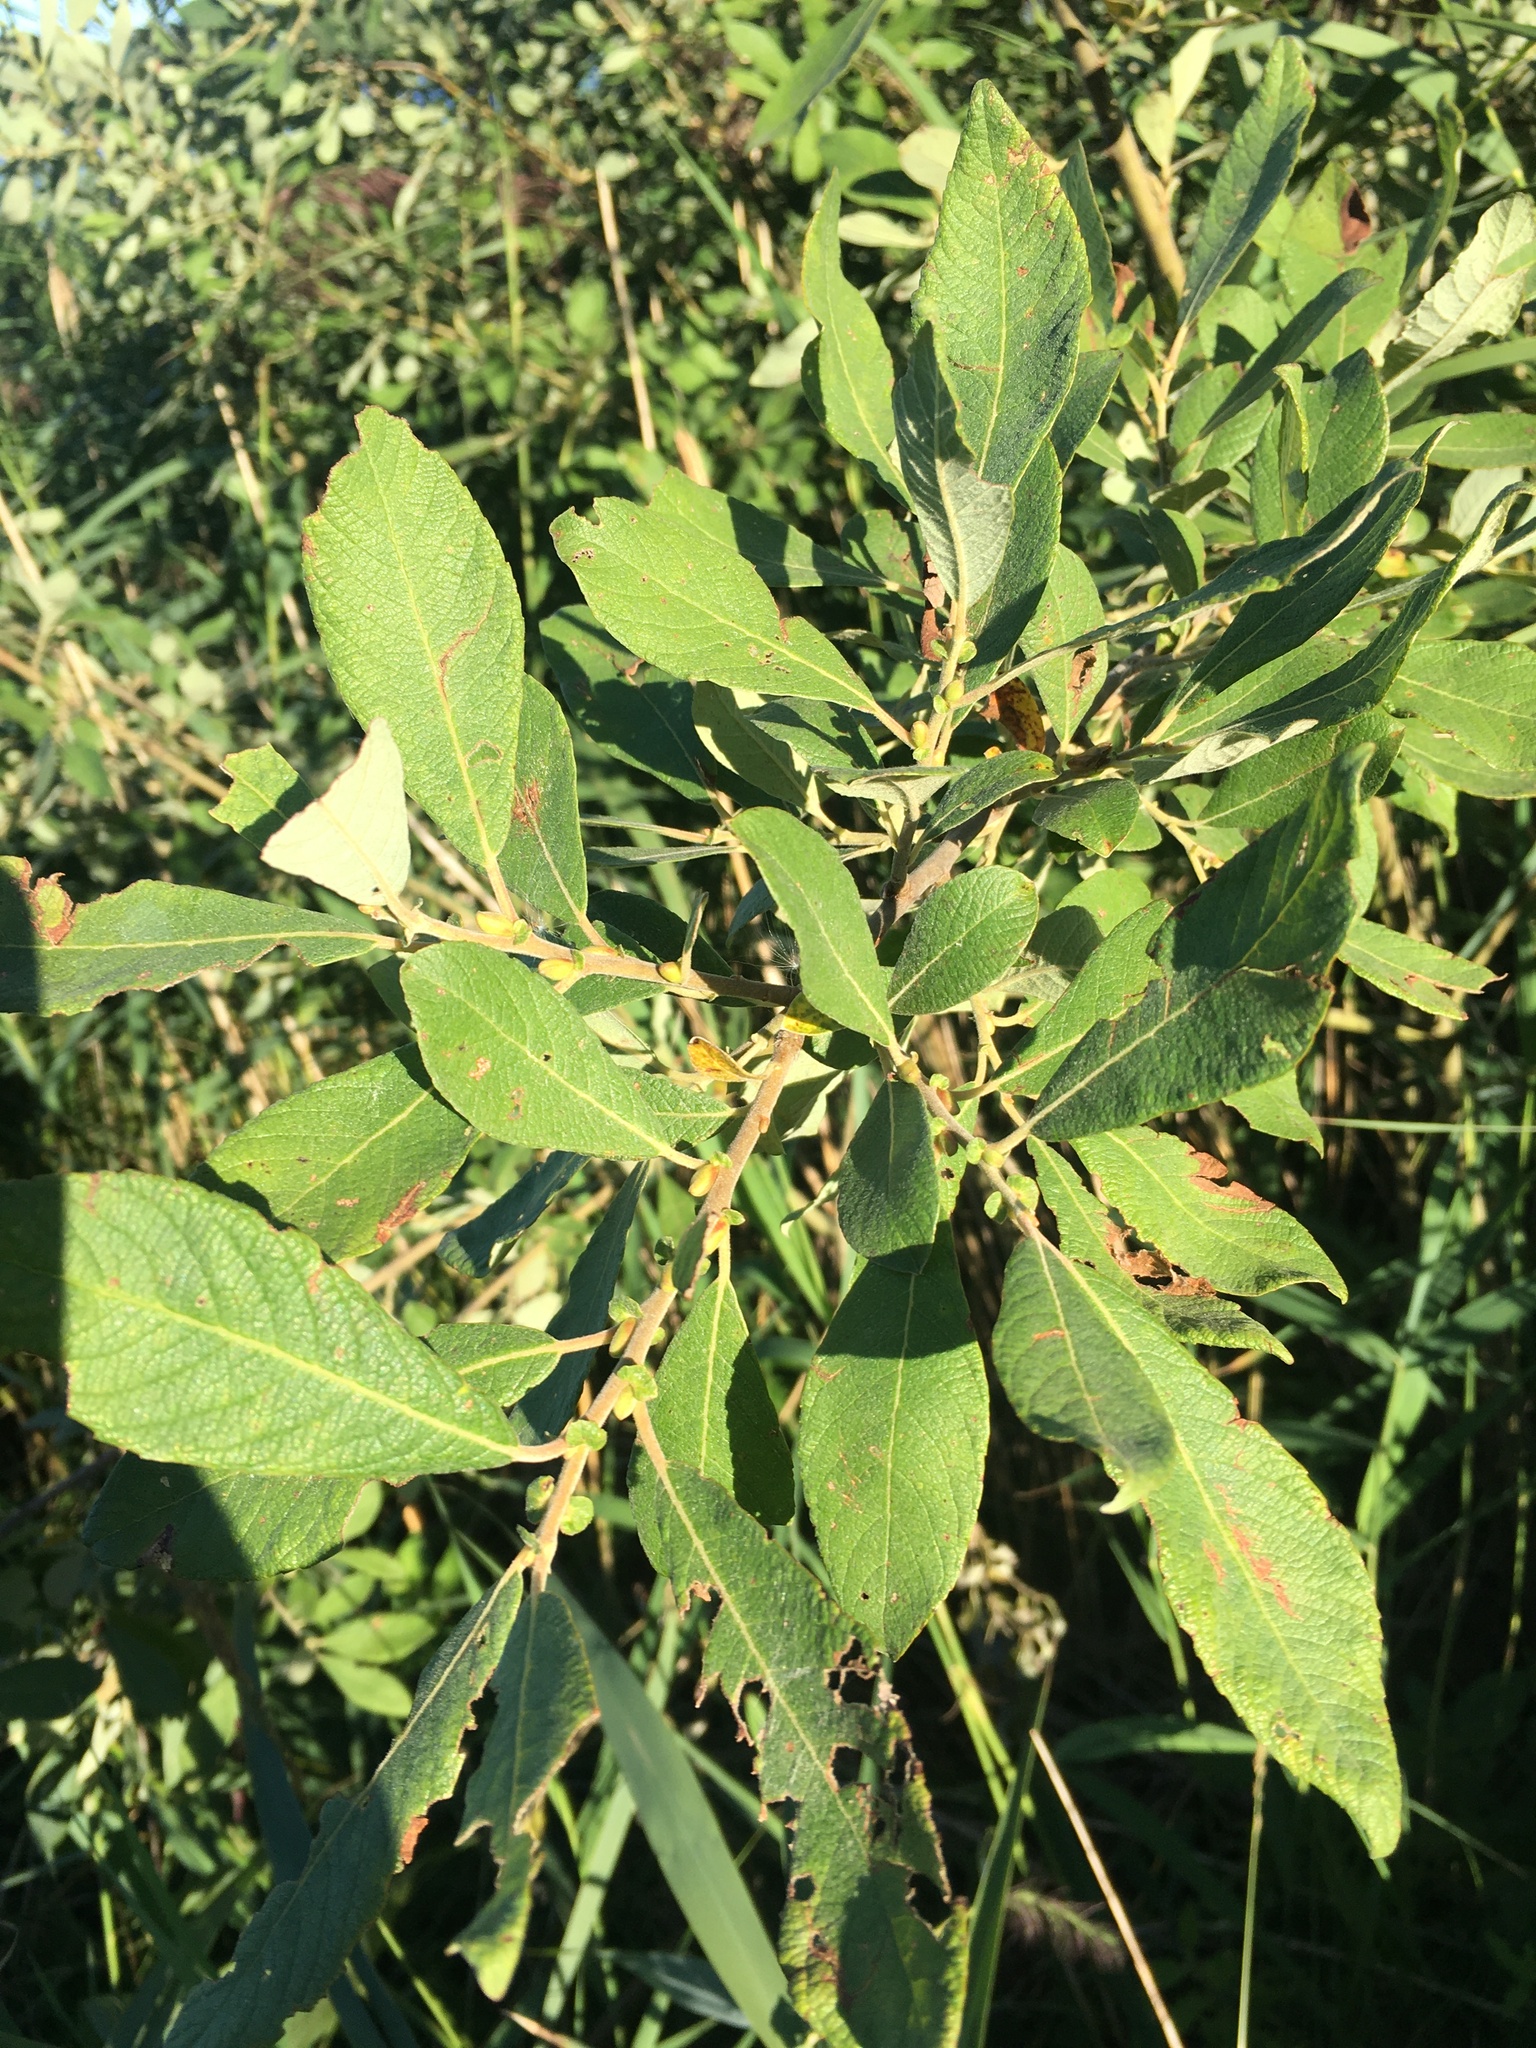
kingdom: Plantae
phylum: Tracheophyta
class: Magnoliopsida
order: Malpighiales
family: Salicaceae
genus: Salix
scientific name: Salix cinerea
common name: Common sallow
